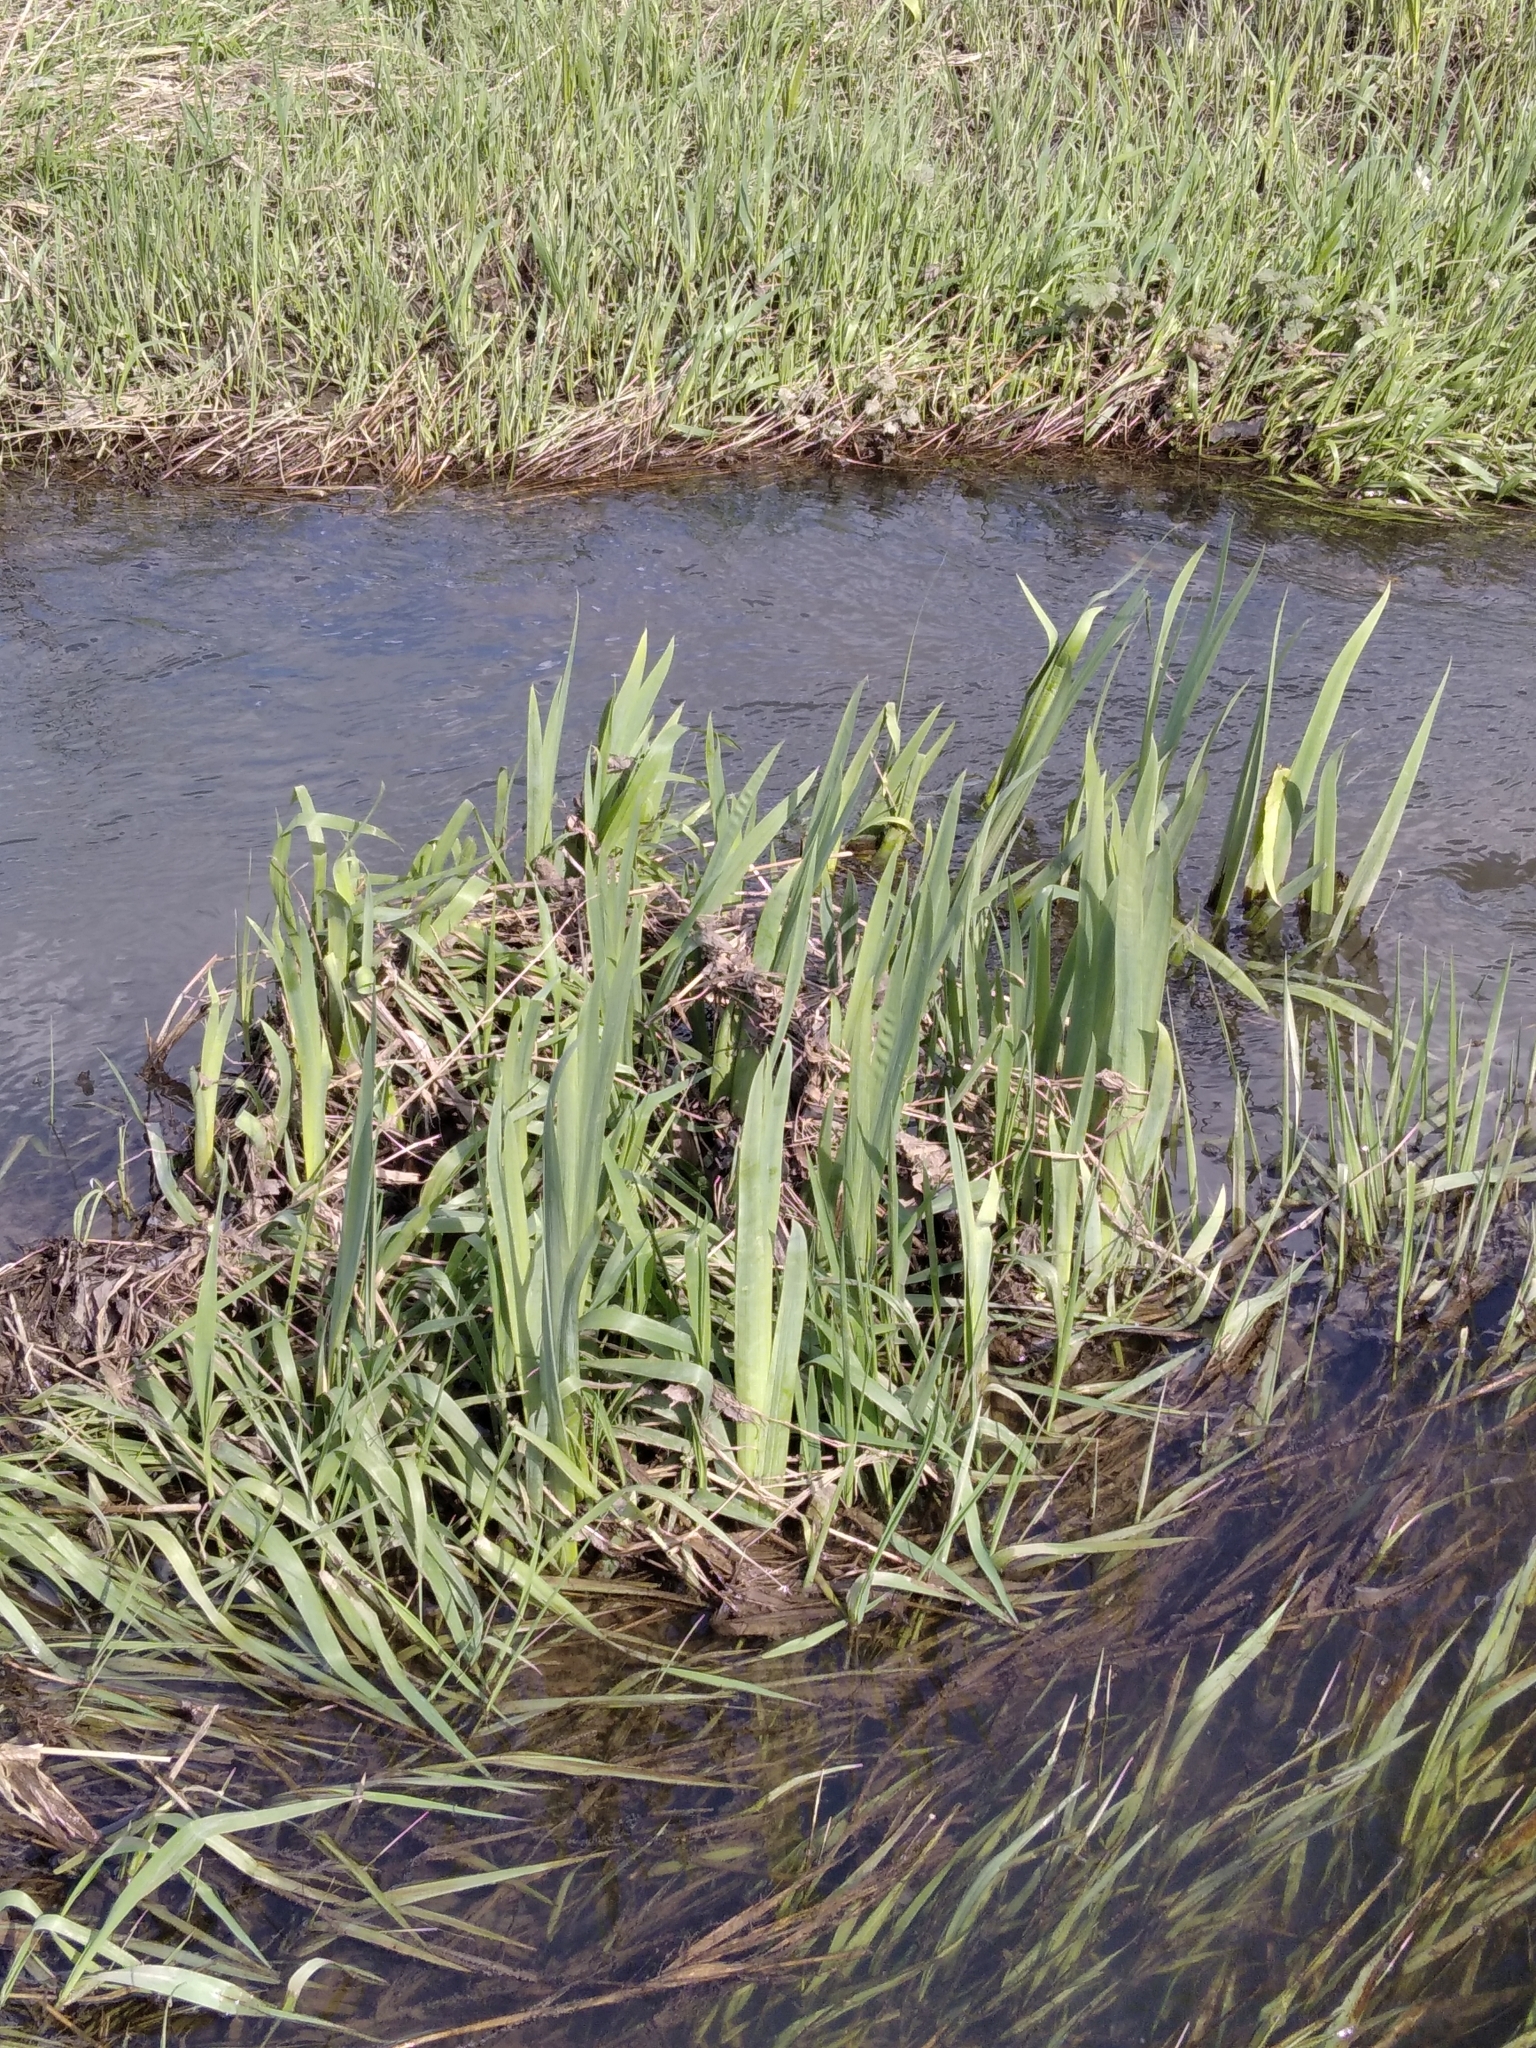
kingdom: Plantae
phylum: Tracheophyta
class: Liliopsida
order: Asparagales
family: Iridaceae
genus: Iris
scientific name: Iris pseudacorus
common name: Yellow flag
